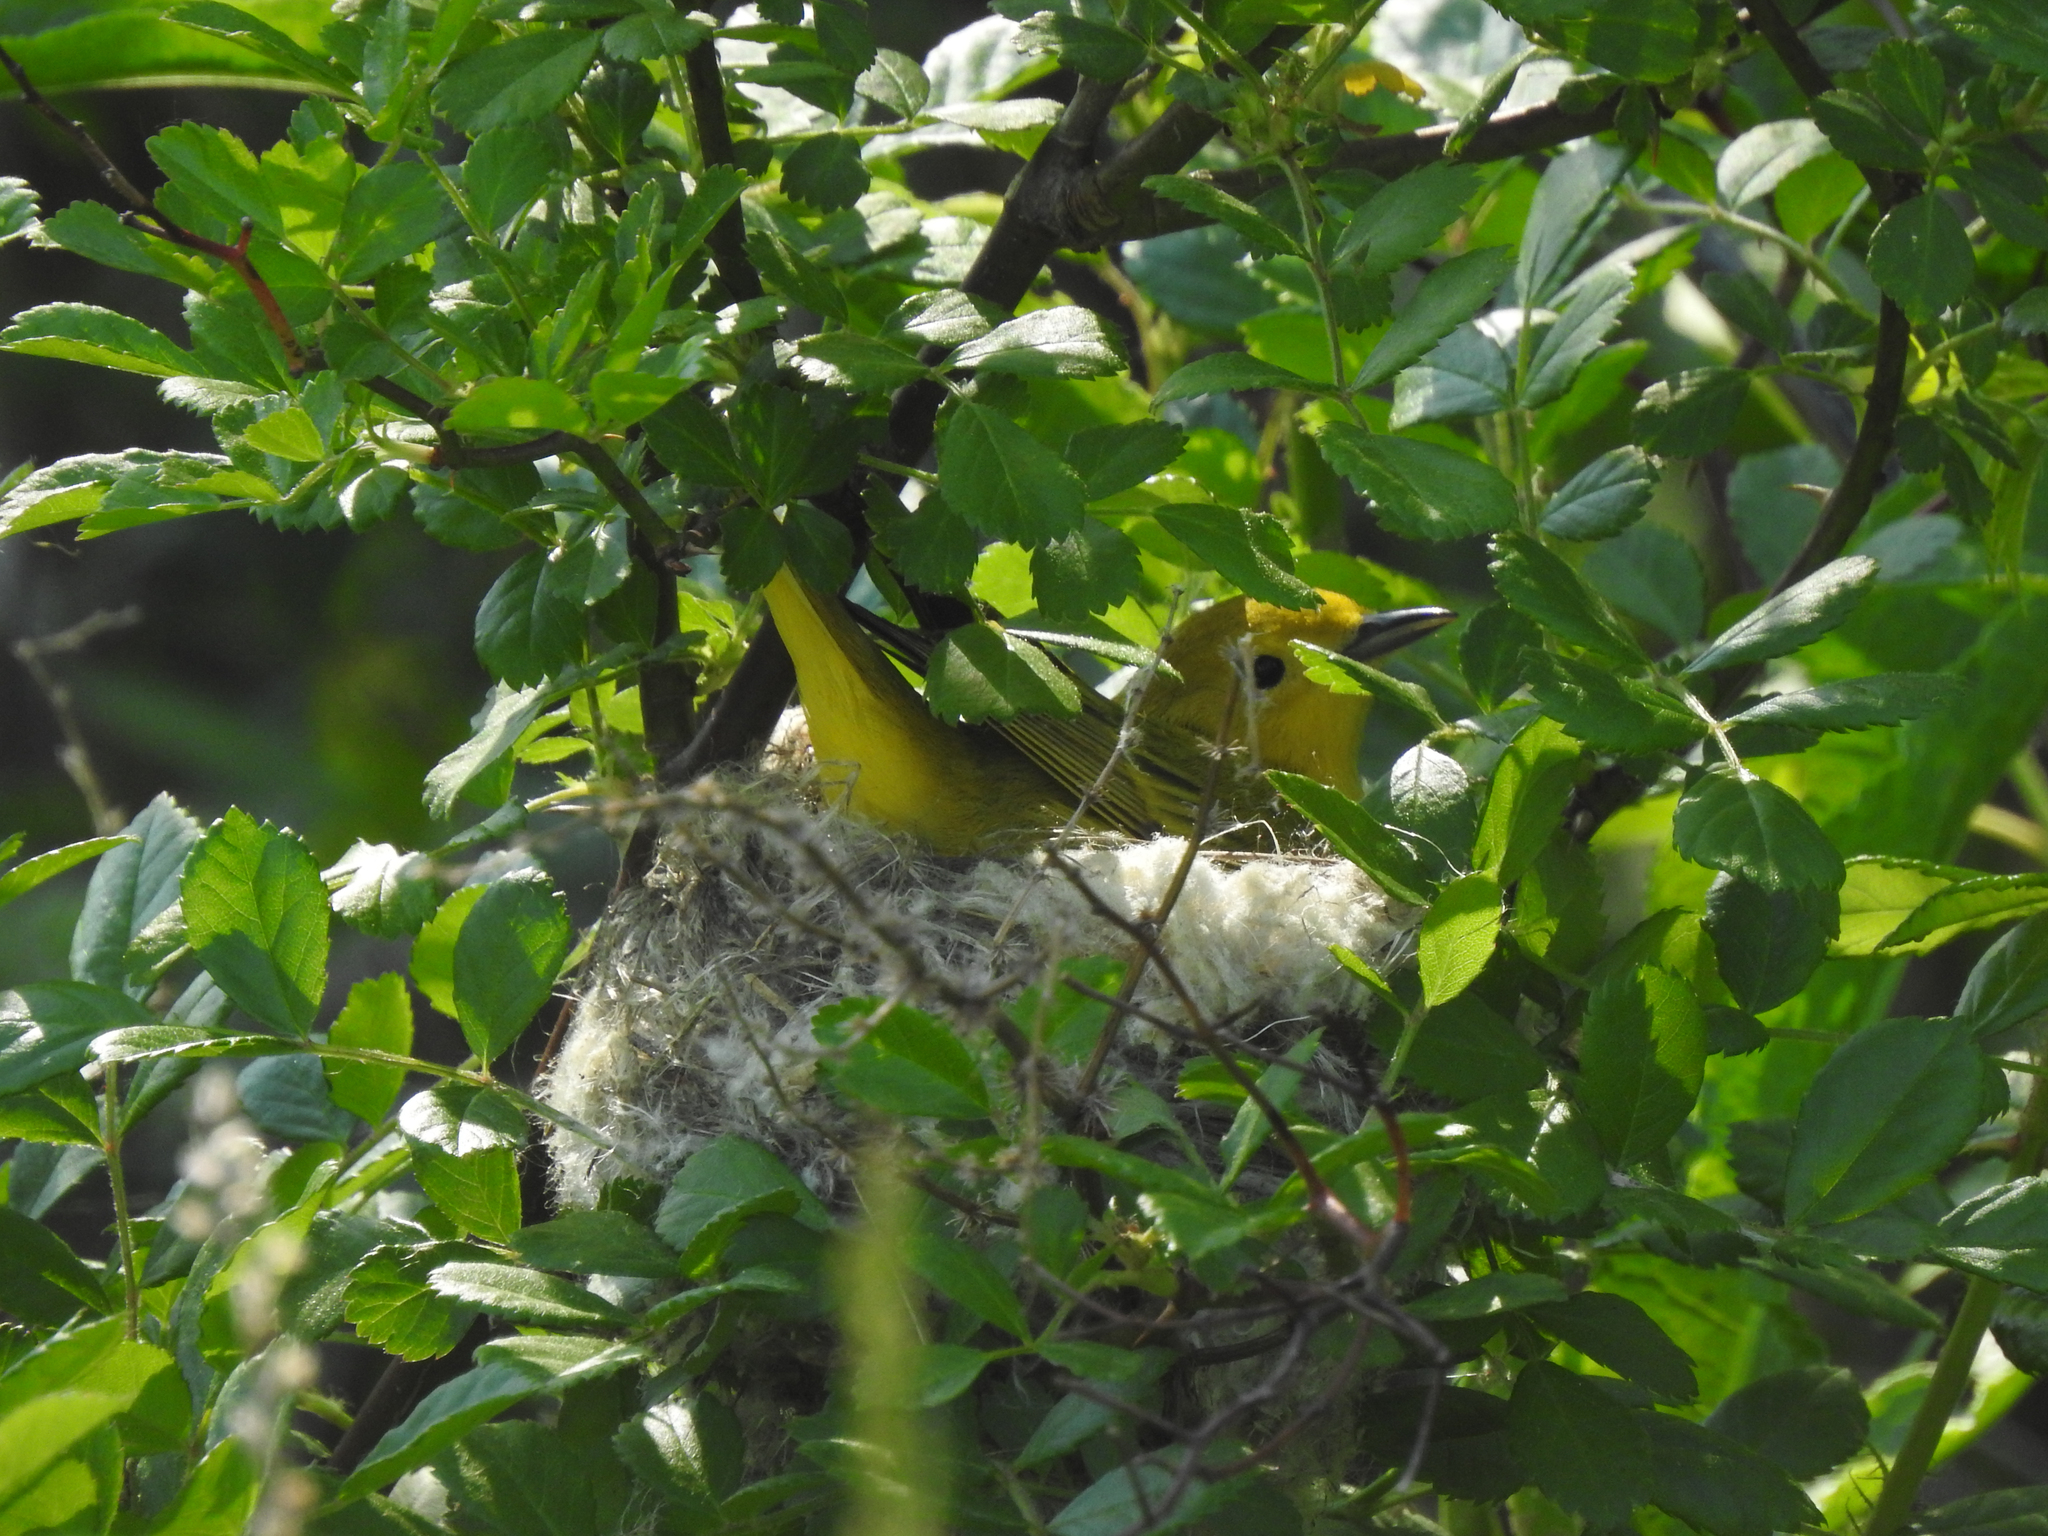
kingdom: Animalia
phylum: Chordata
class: Aves
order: Passeriformes
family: Parulidae
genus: Setophaga
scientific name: Setophaga petechia
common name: Yellow warbler
